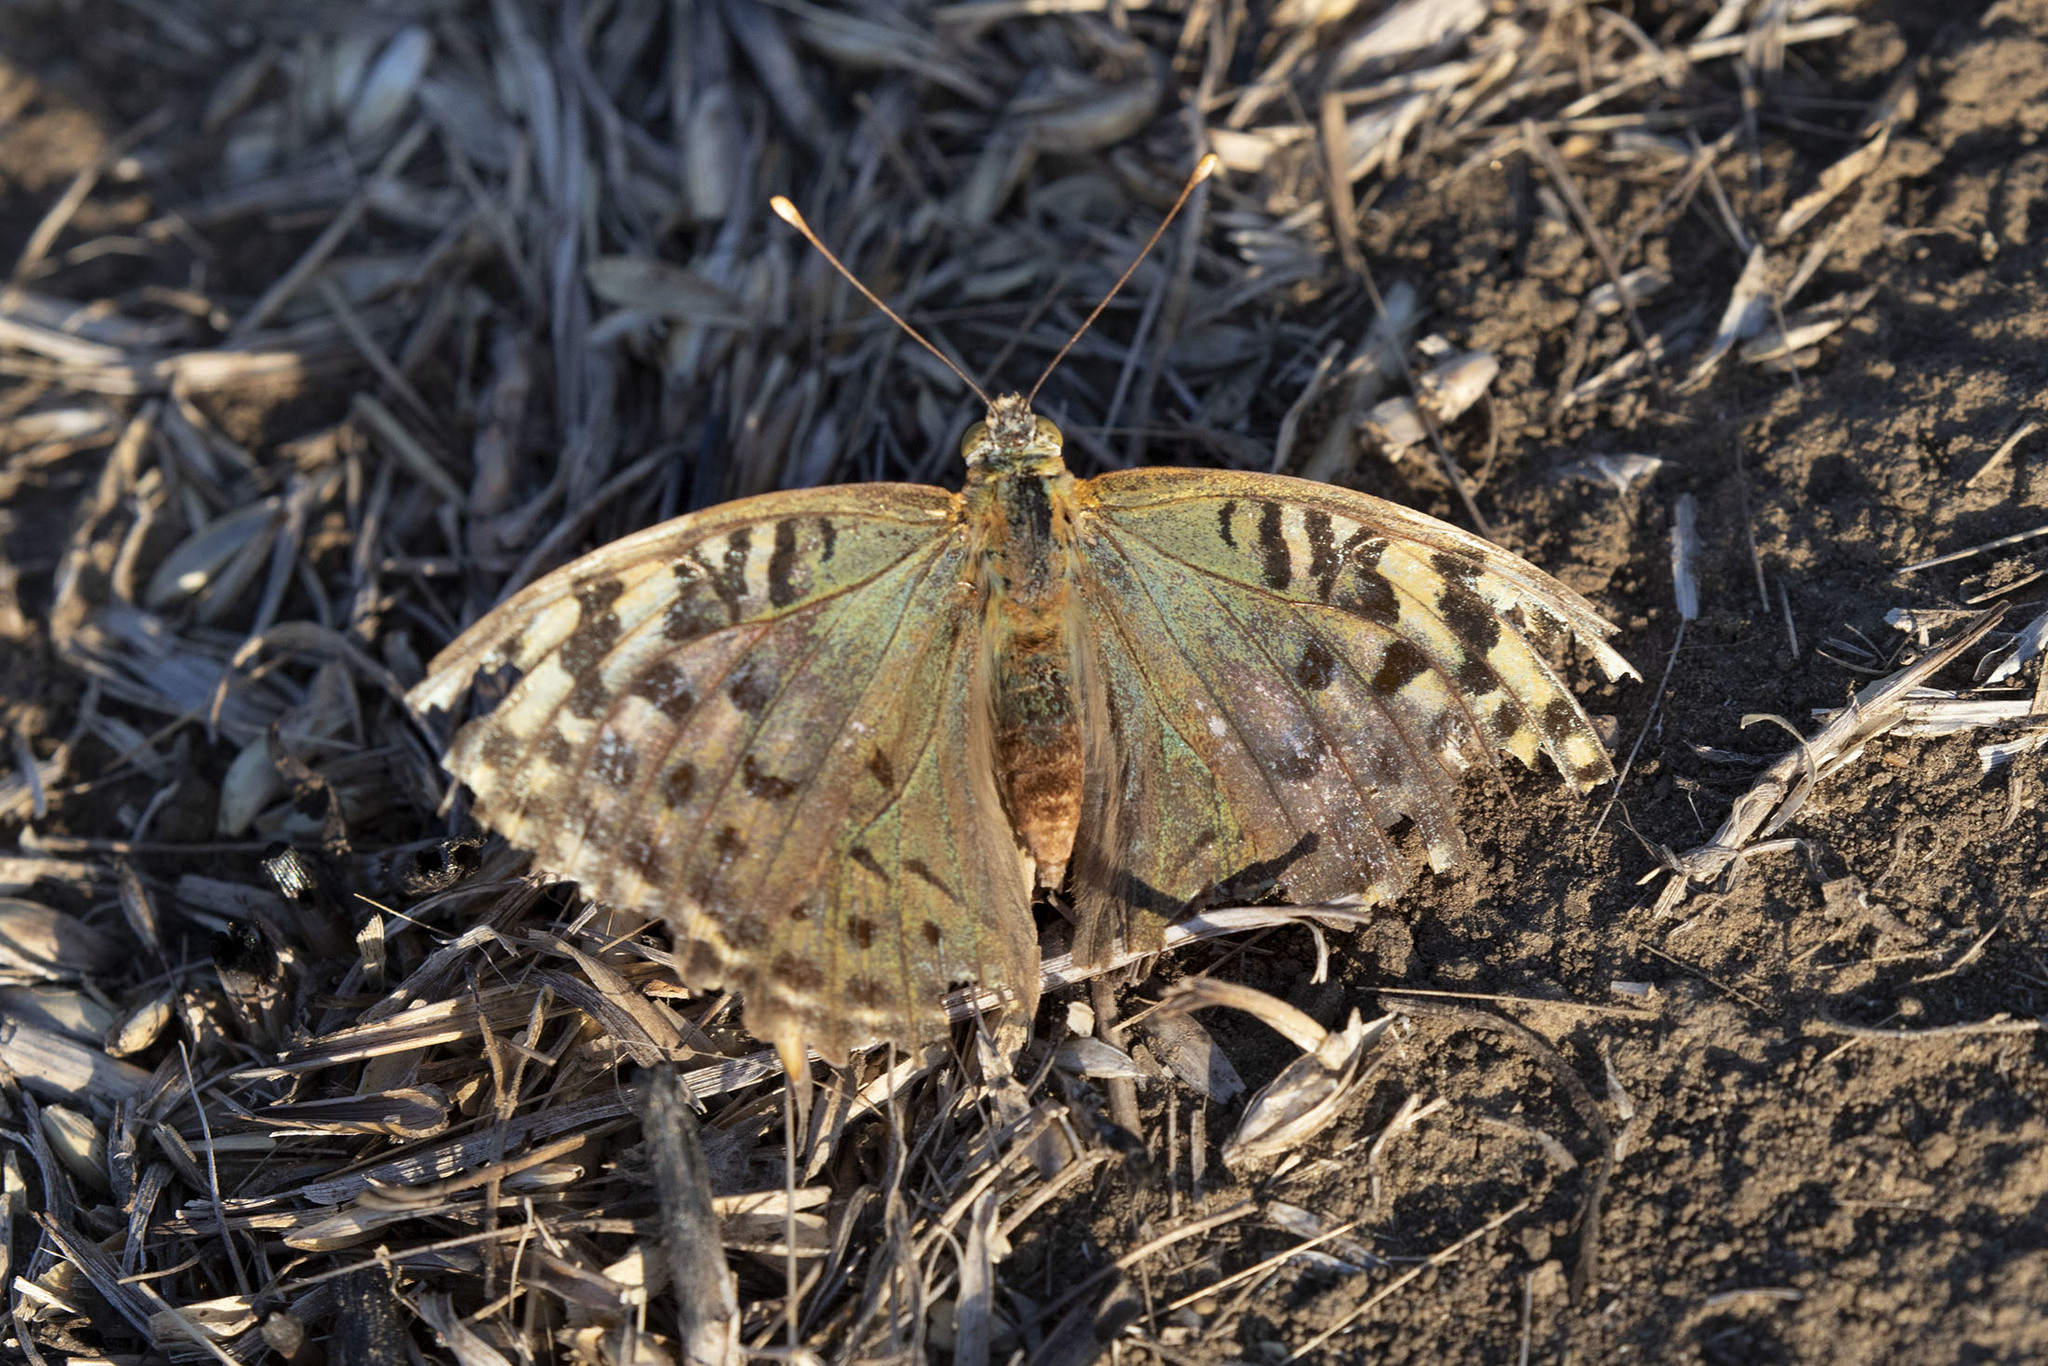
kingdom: Animalia
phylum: Arthropoda
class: Insecta
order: Lepidoptera
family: Nymphalidae
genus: Damora
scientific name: Damora pandora
